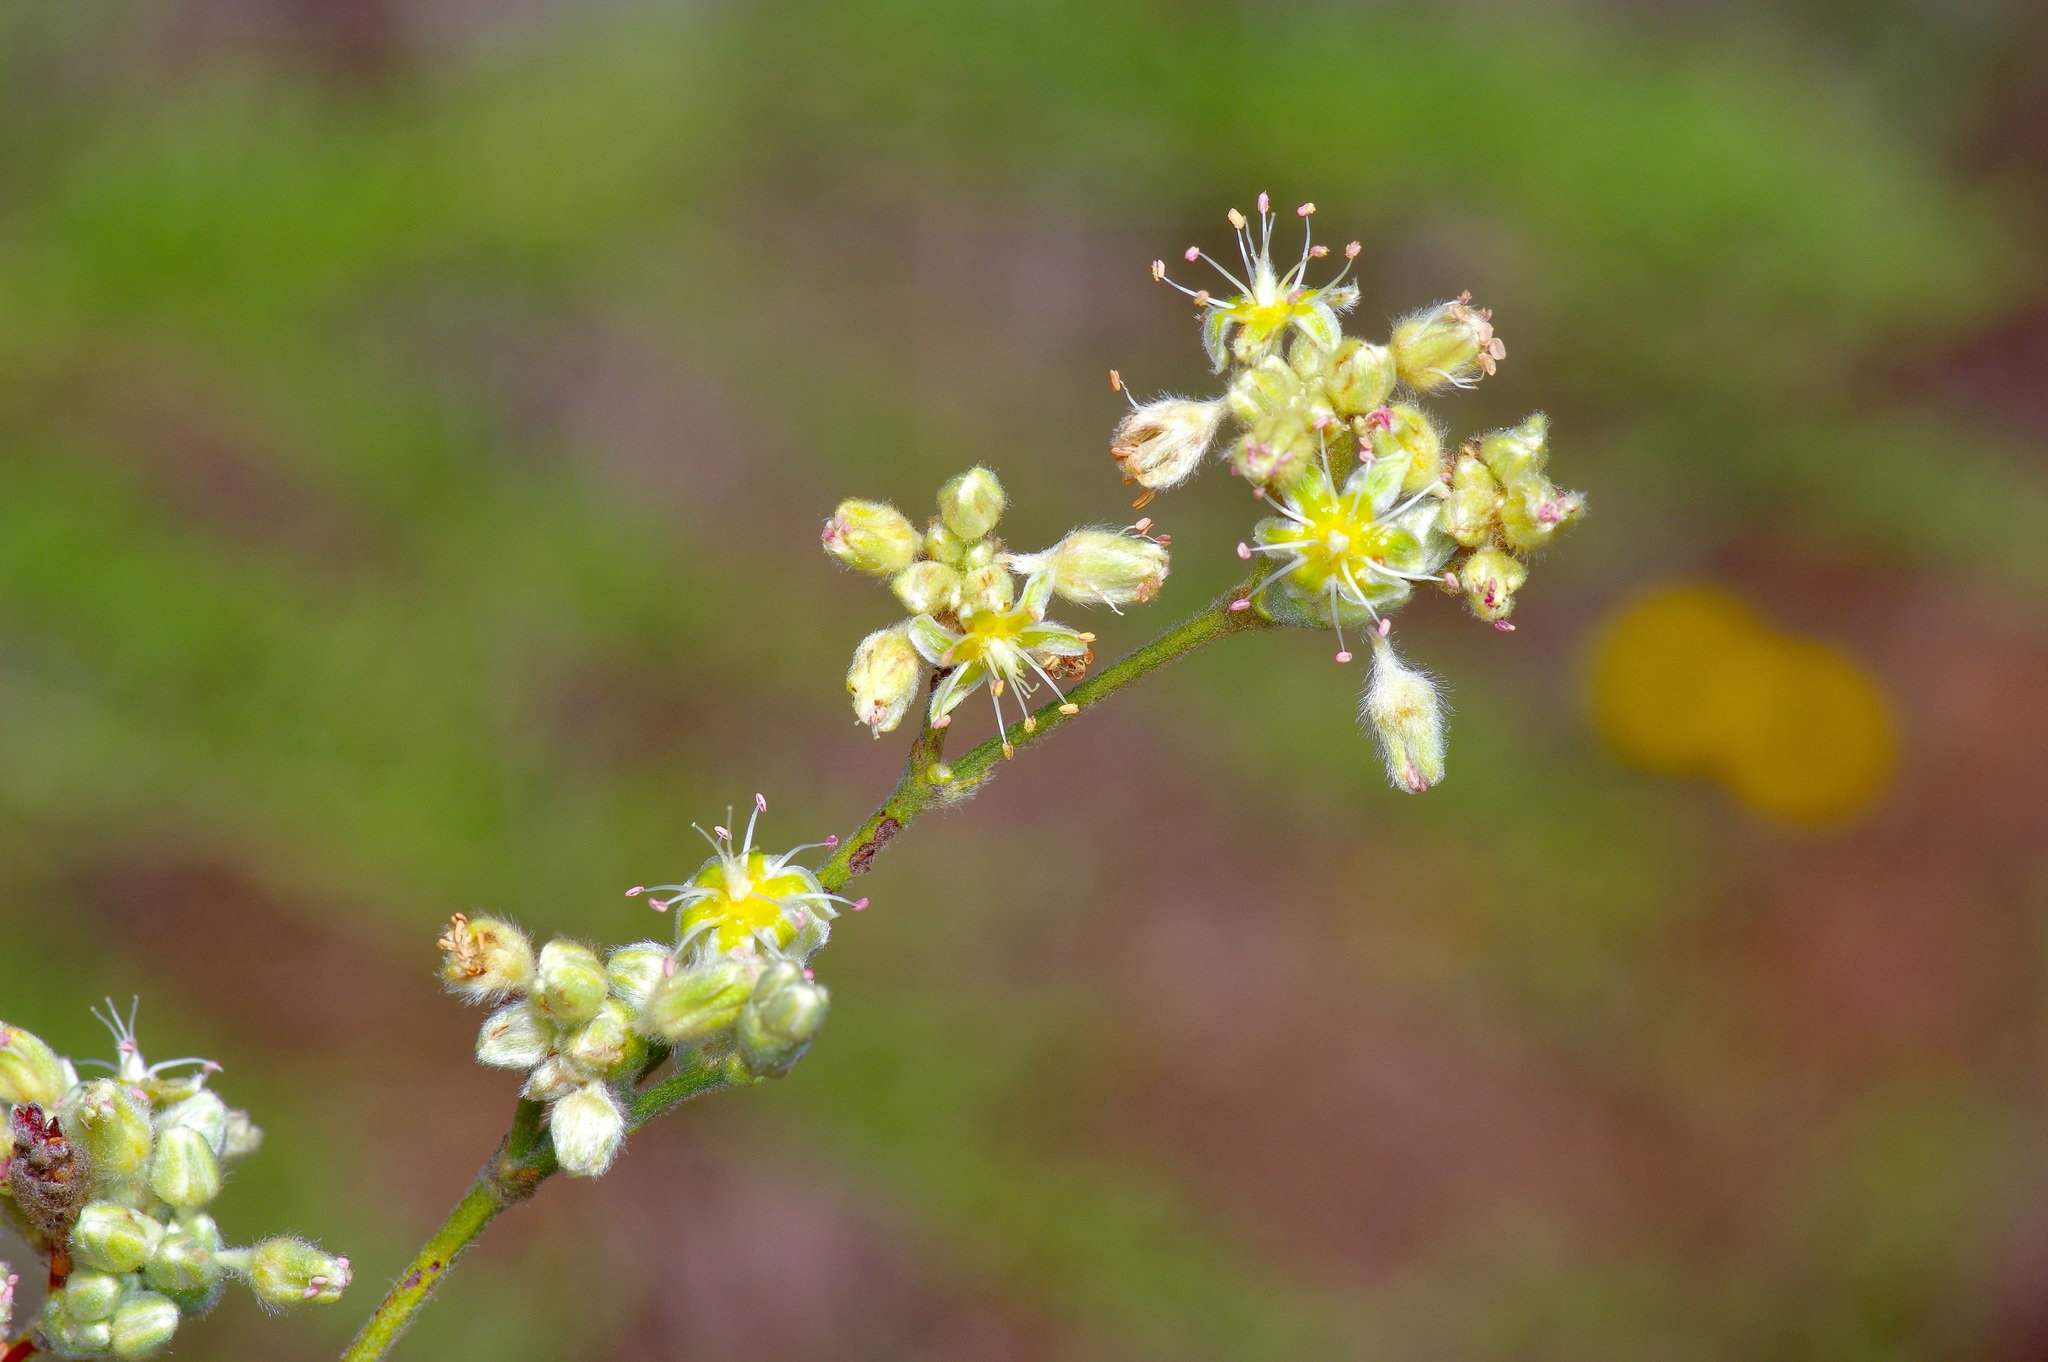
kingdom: Plantae
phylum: Tracheophyta
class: Magnoliopsida
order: Caryophyllales
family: Polygonaceae
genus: Eriogonum
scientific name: Eriogonum longifolium
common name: Longleaf wild buckwheat
